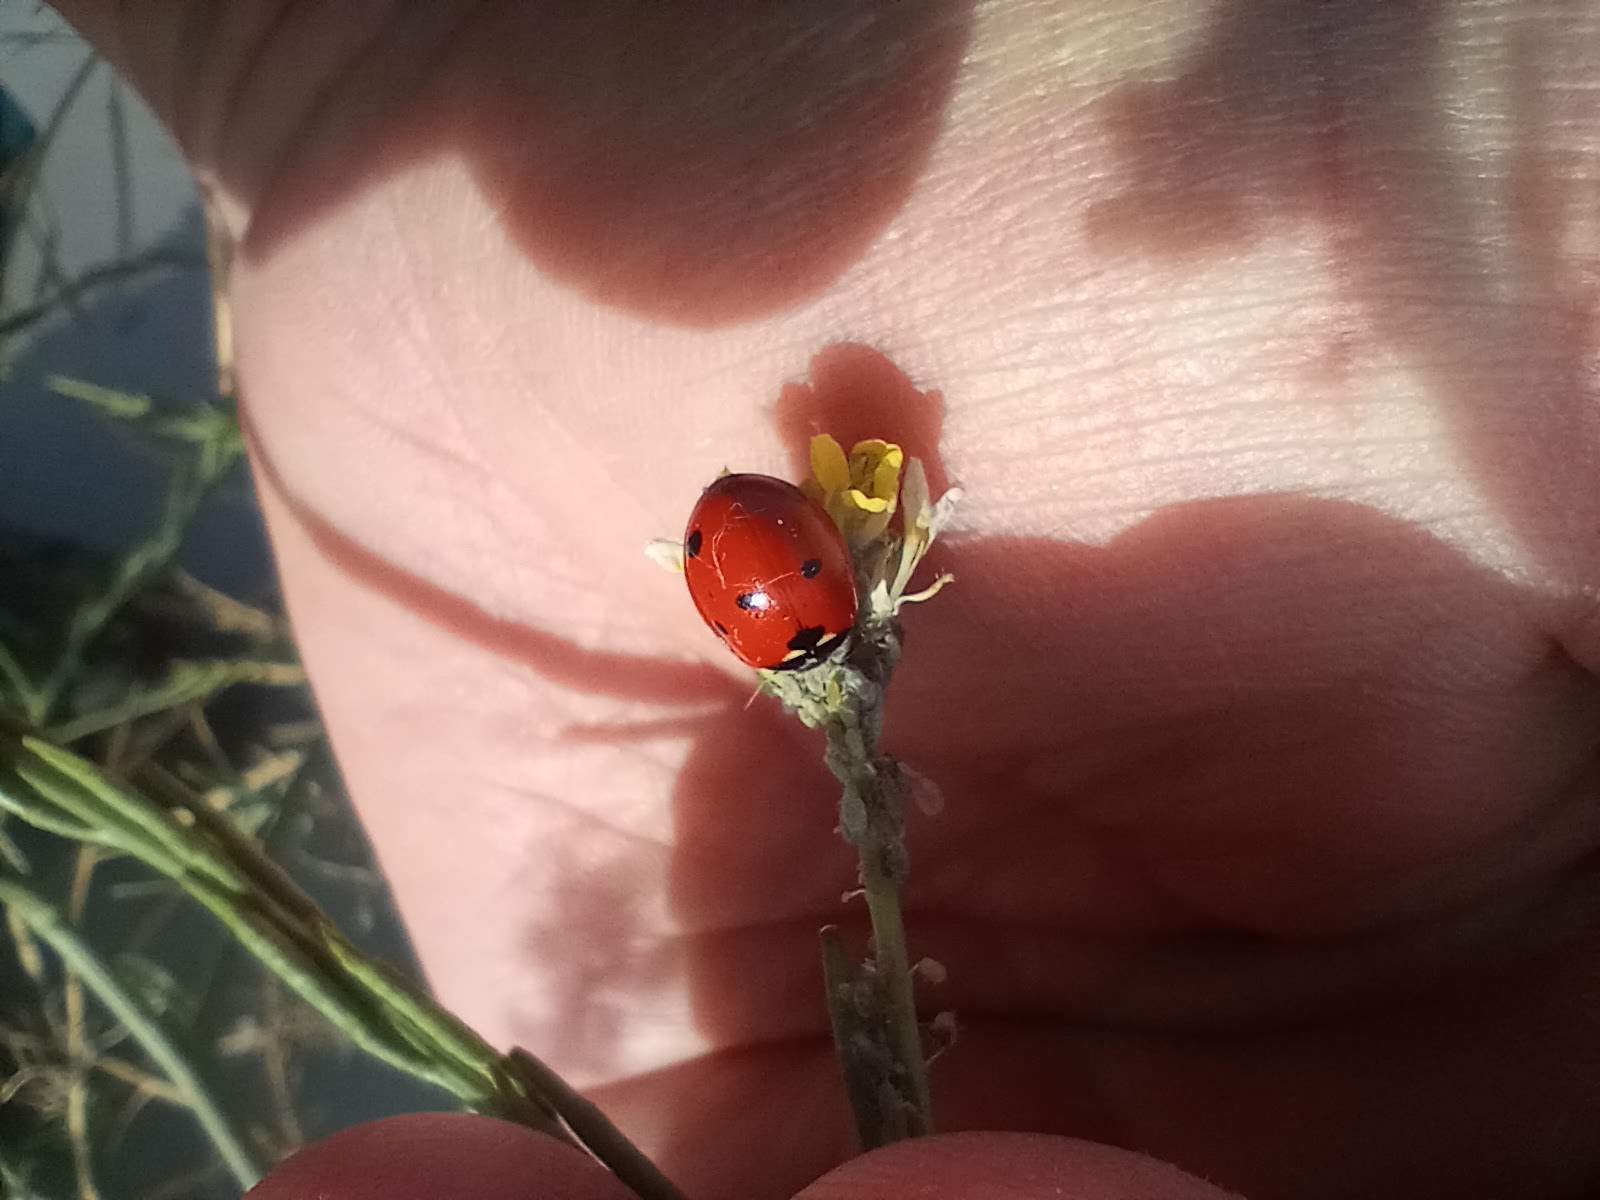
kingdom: Animalia
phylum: Arthropoda
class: Insecta
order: Coleoptera
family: Coccinellidae
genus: Coccinella
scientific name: Coccinella septempunctata
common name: Sevenspotted lady beetle
